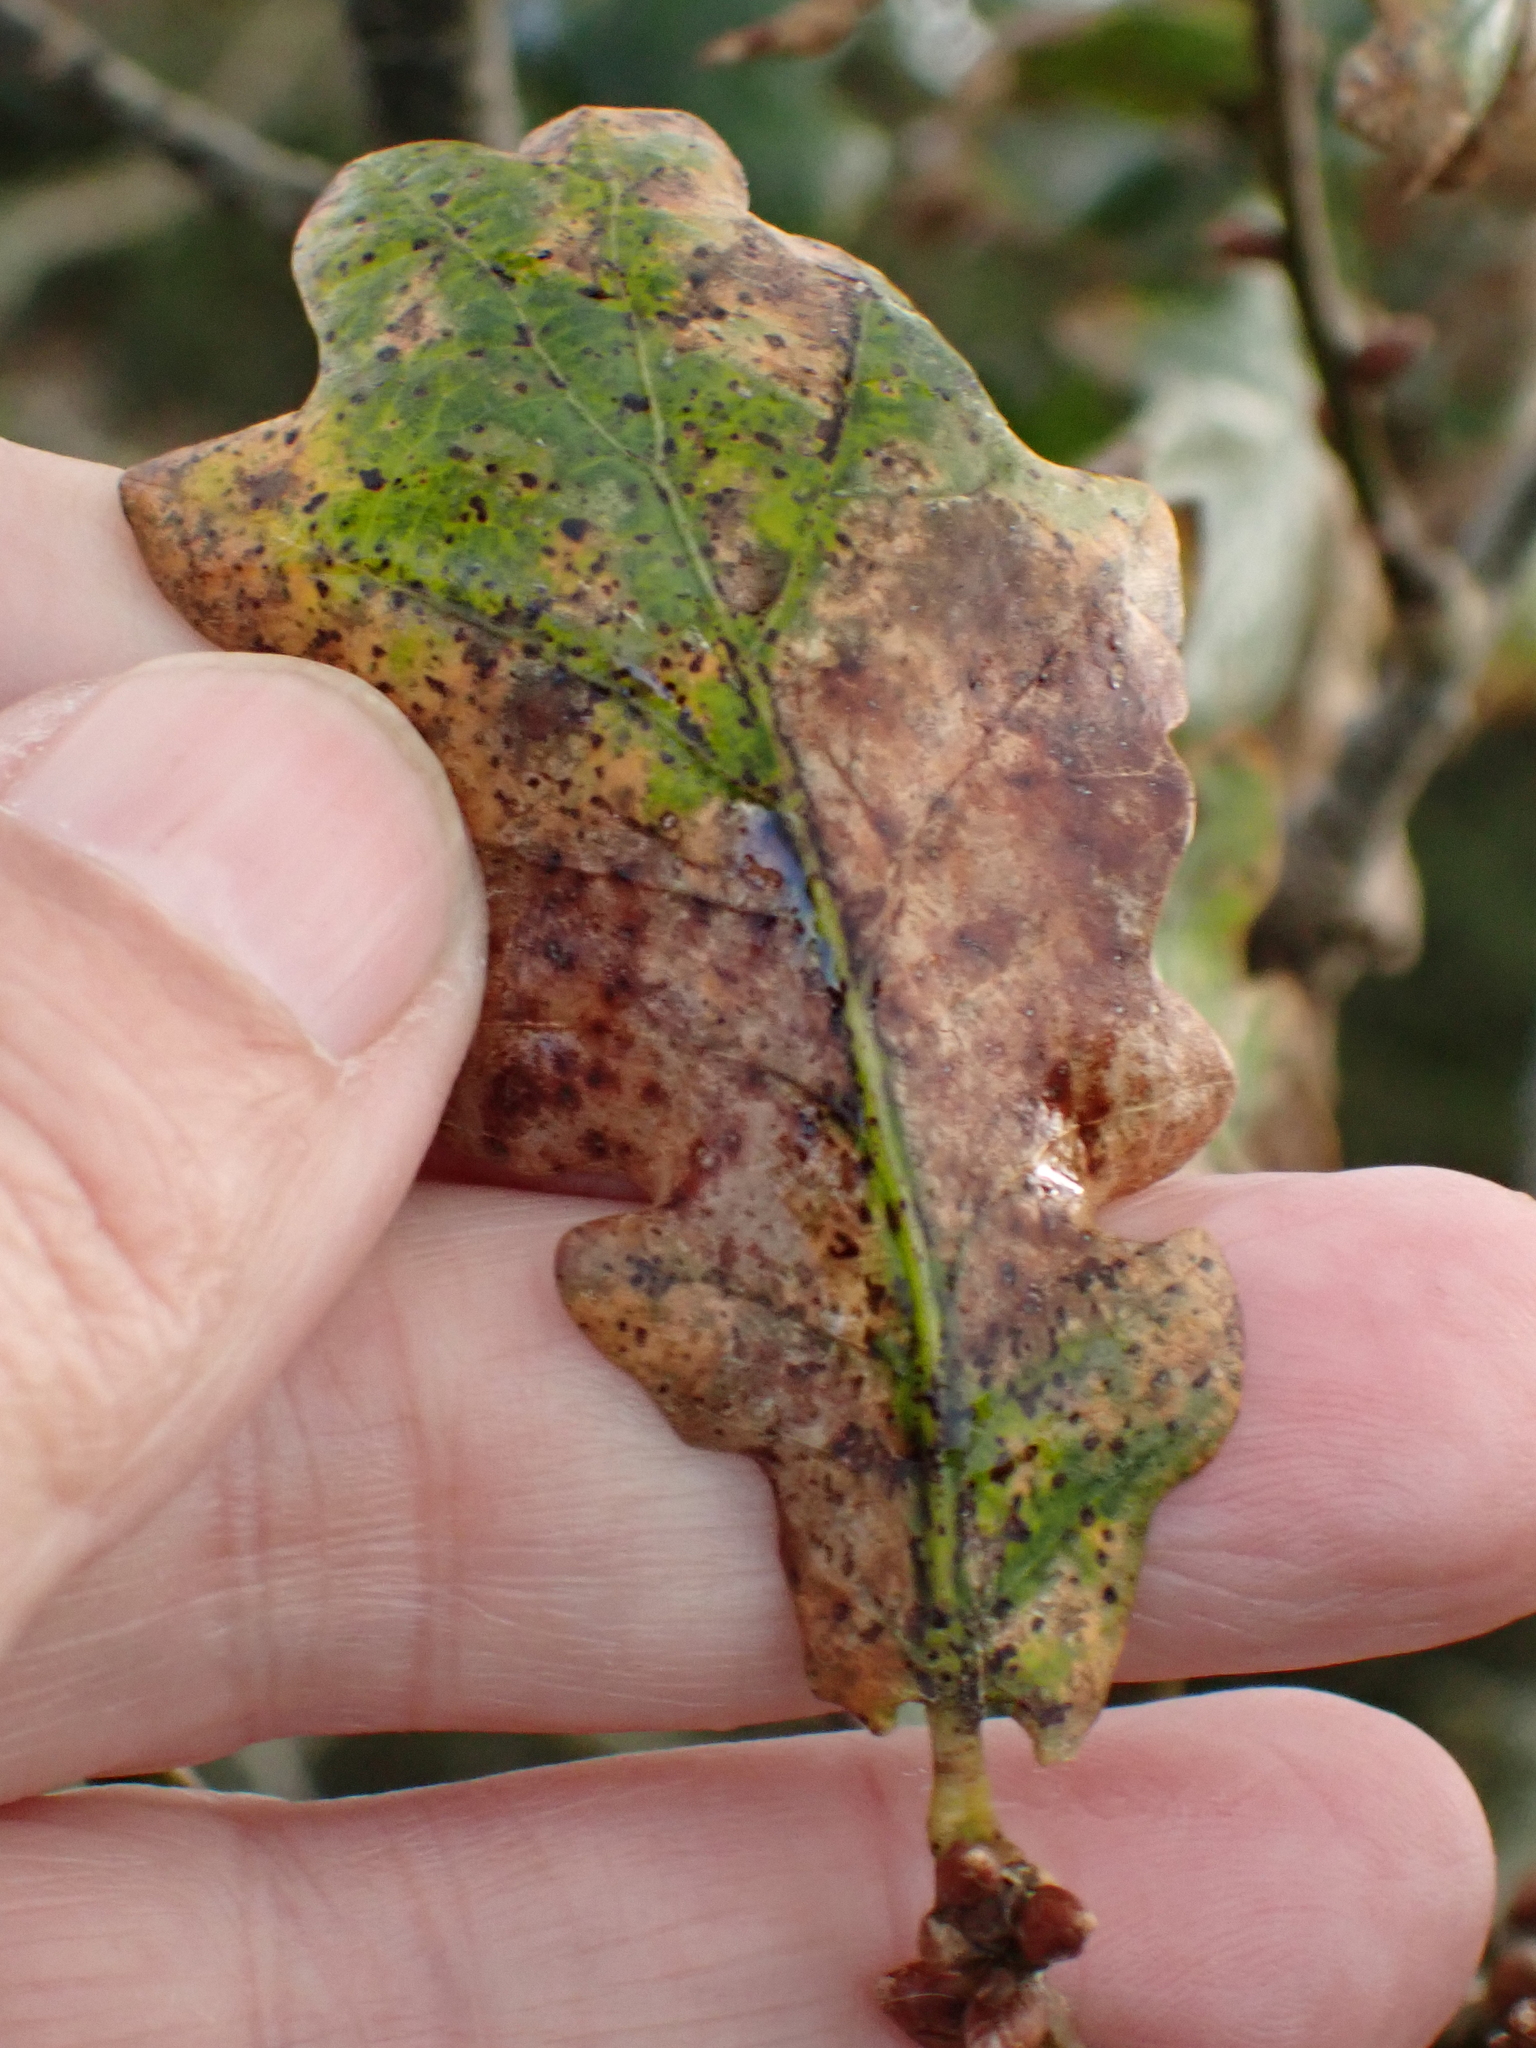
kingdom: Plantae
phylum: Tracheophyta
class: Magnoliopsida
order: Fagales
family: Fagaceae
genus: Quercus
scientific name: Quercus robur
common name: Pedunculate oak
